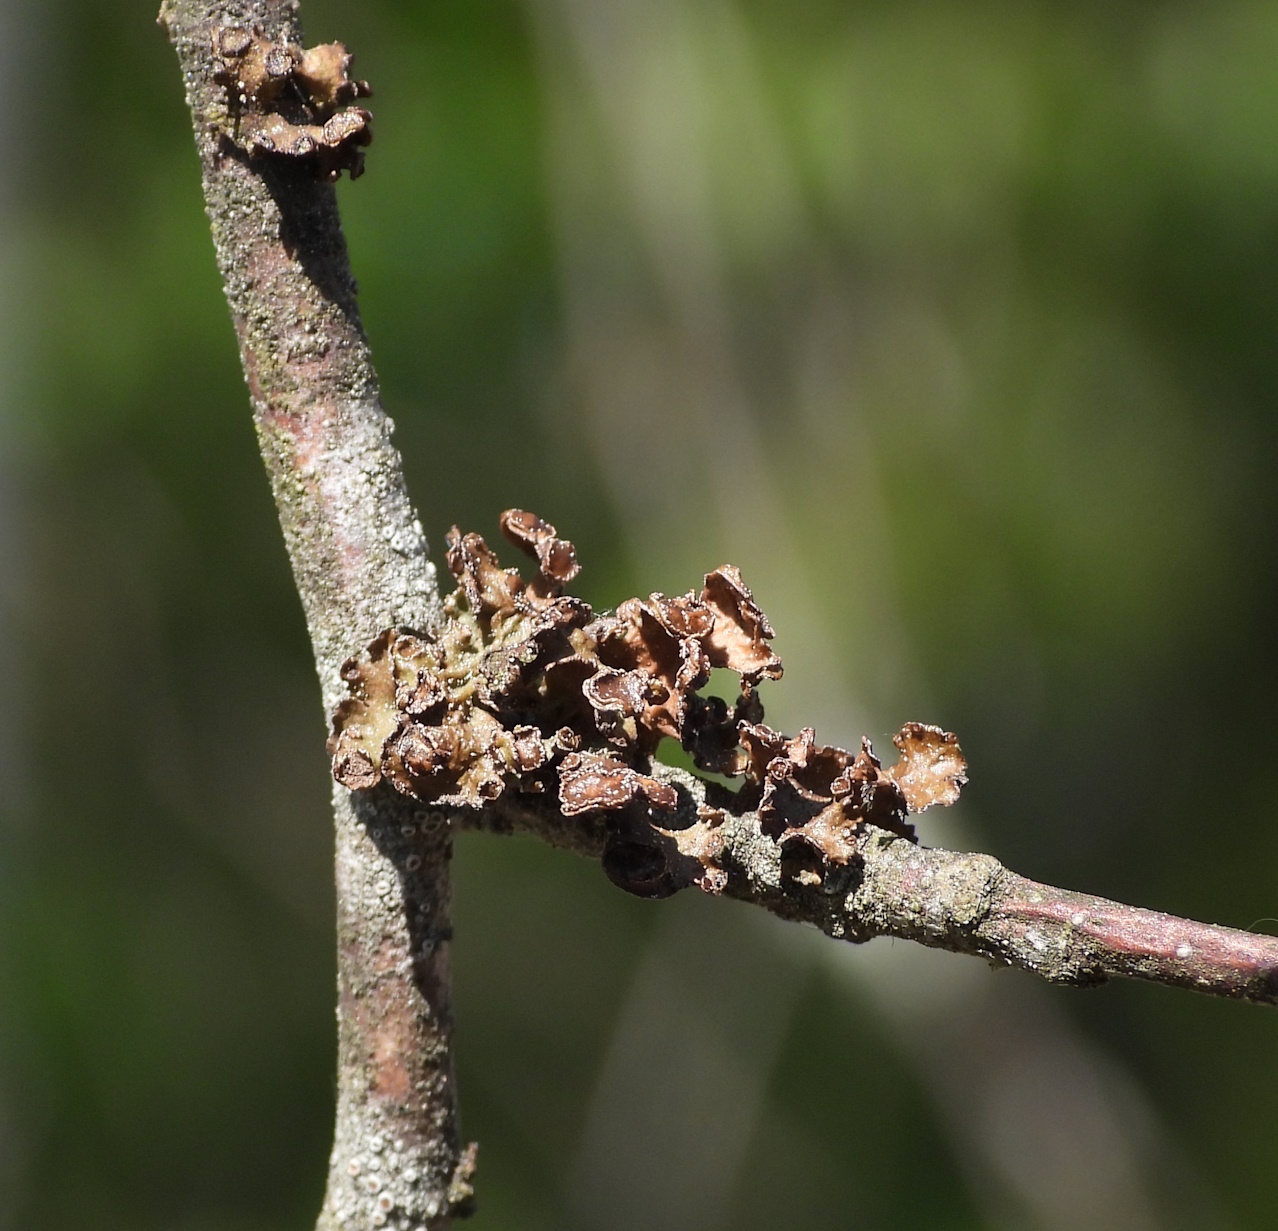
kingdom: Fungi
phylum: Ascomycota
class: Lecanoromycetes
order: Lecanorales
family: Parmeliaceae
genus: Cetraria
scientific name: Cetraria sepincola
